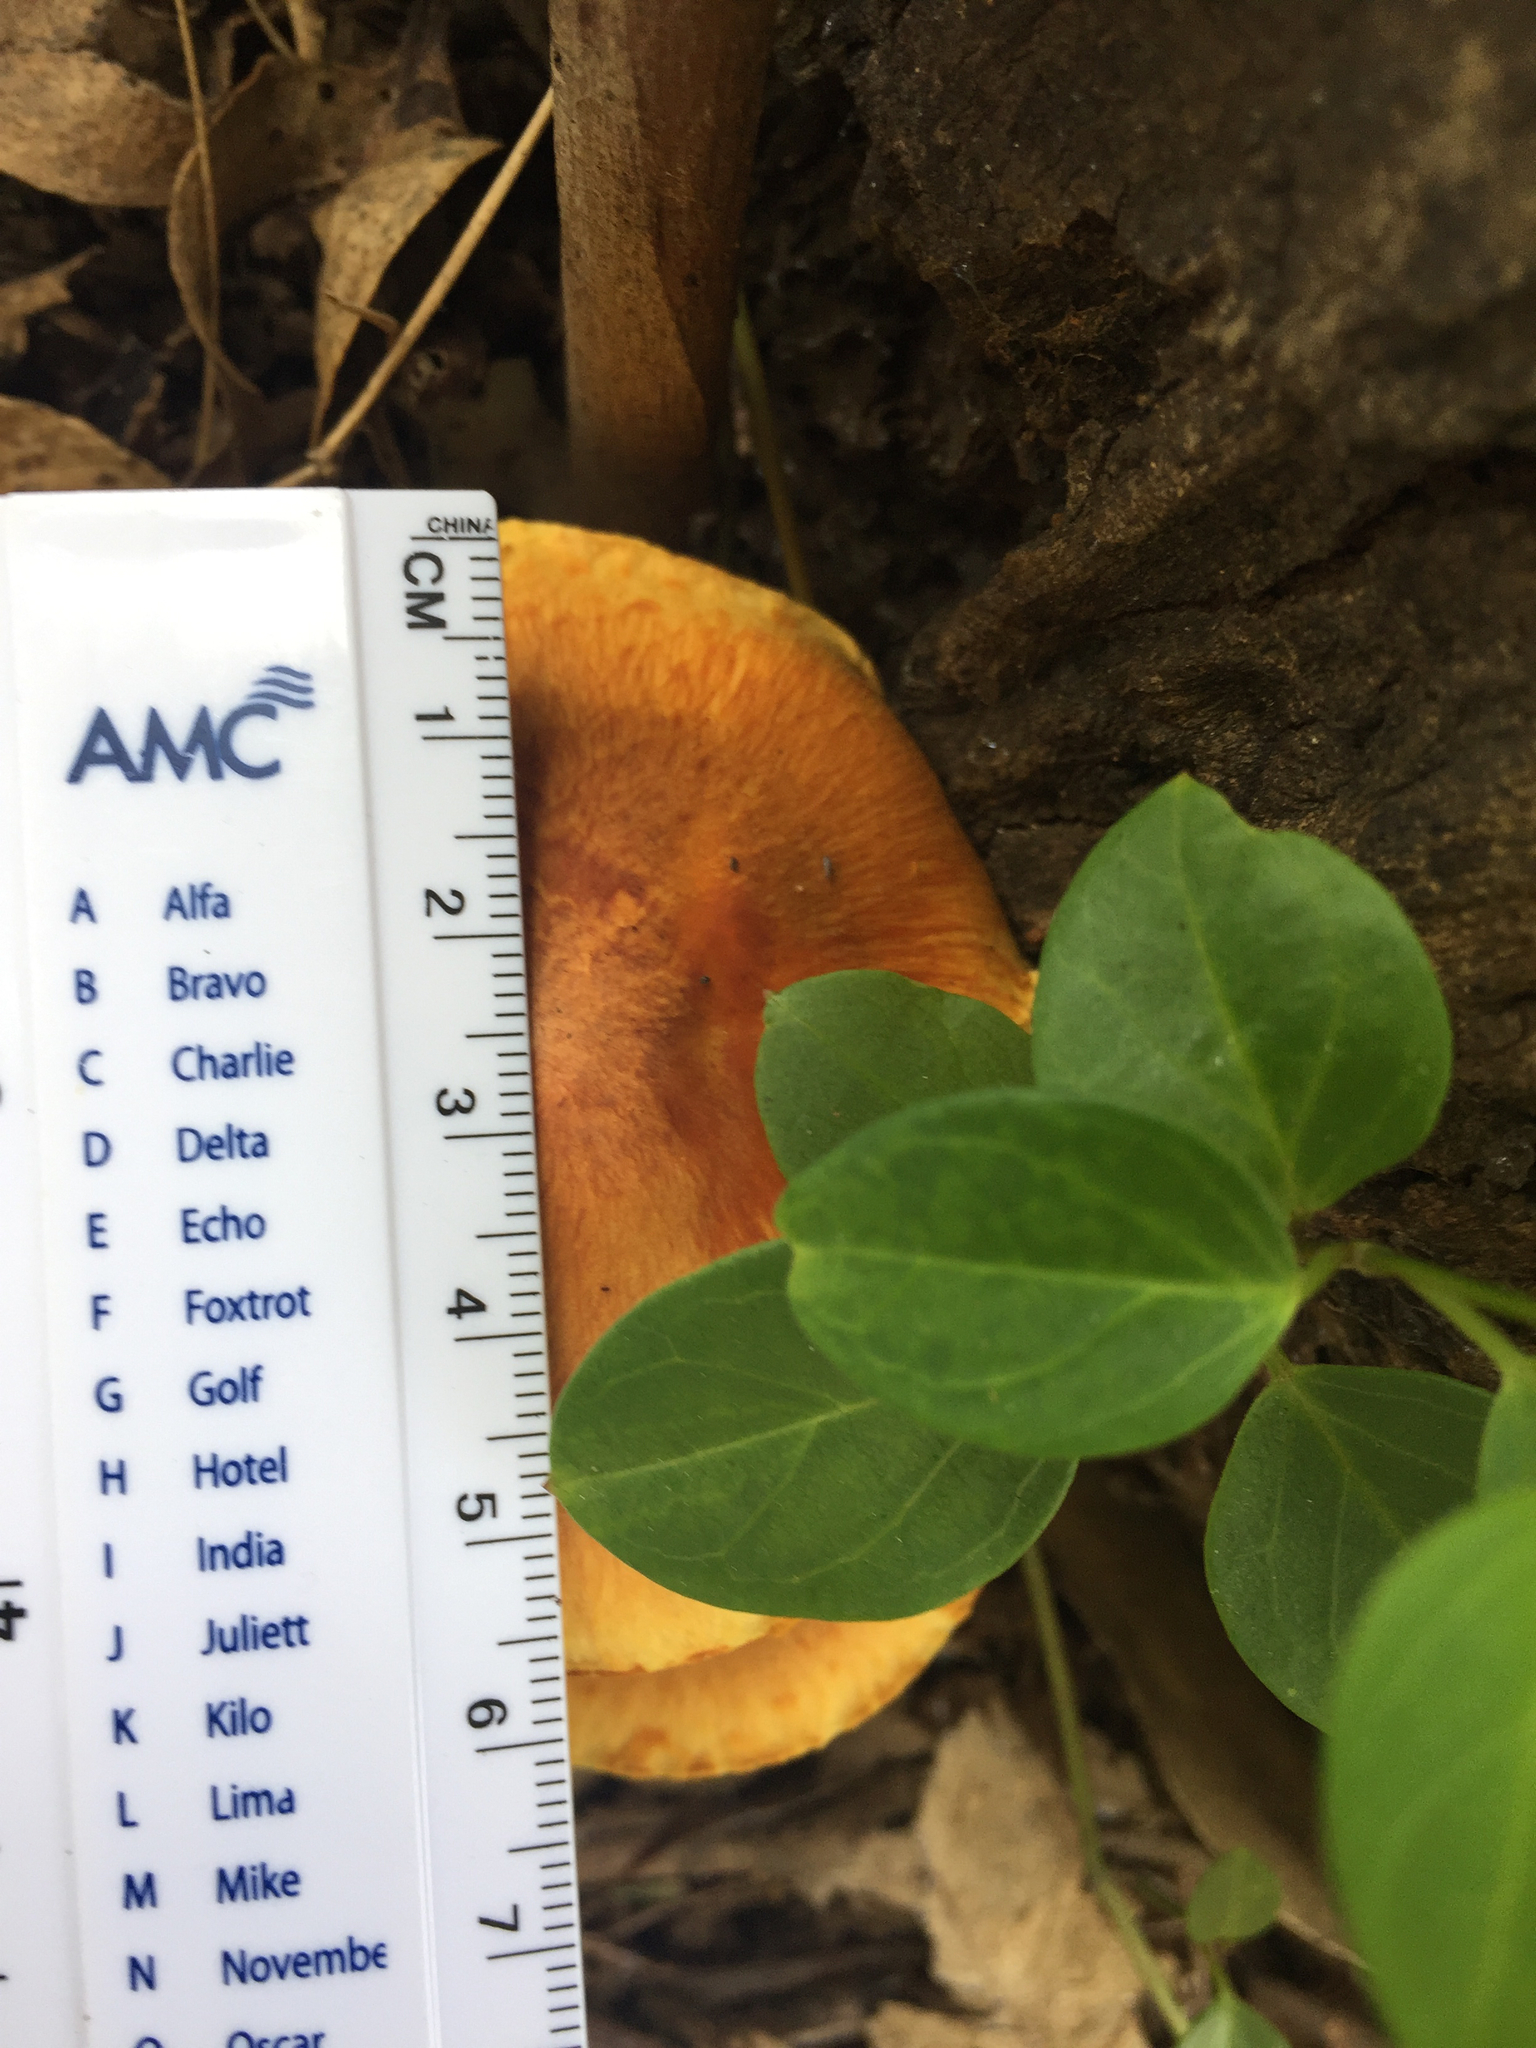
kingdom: Fungi
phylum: Basidiomycota
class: Agaricomycetes
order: Agaricales
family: Hymenogastraceae
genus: Gymnopilus
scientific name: Gymnopilus junonius
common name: Spectacular rustgill
